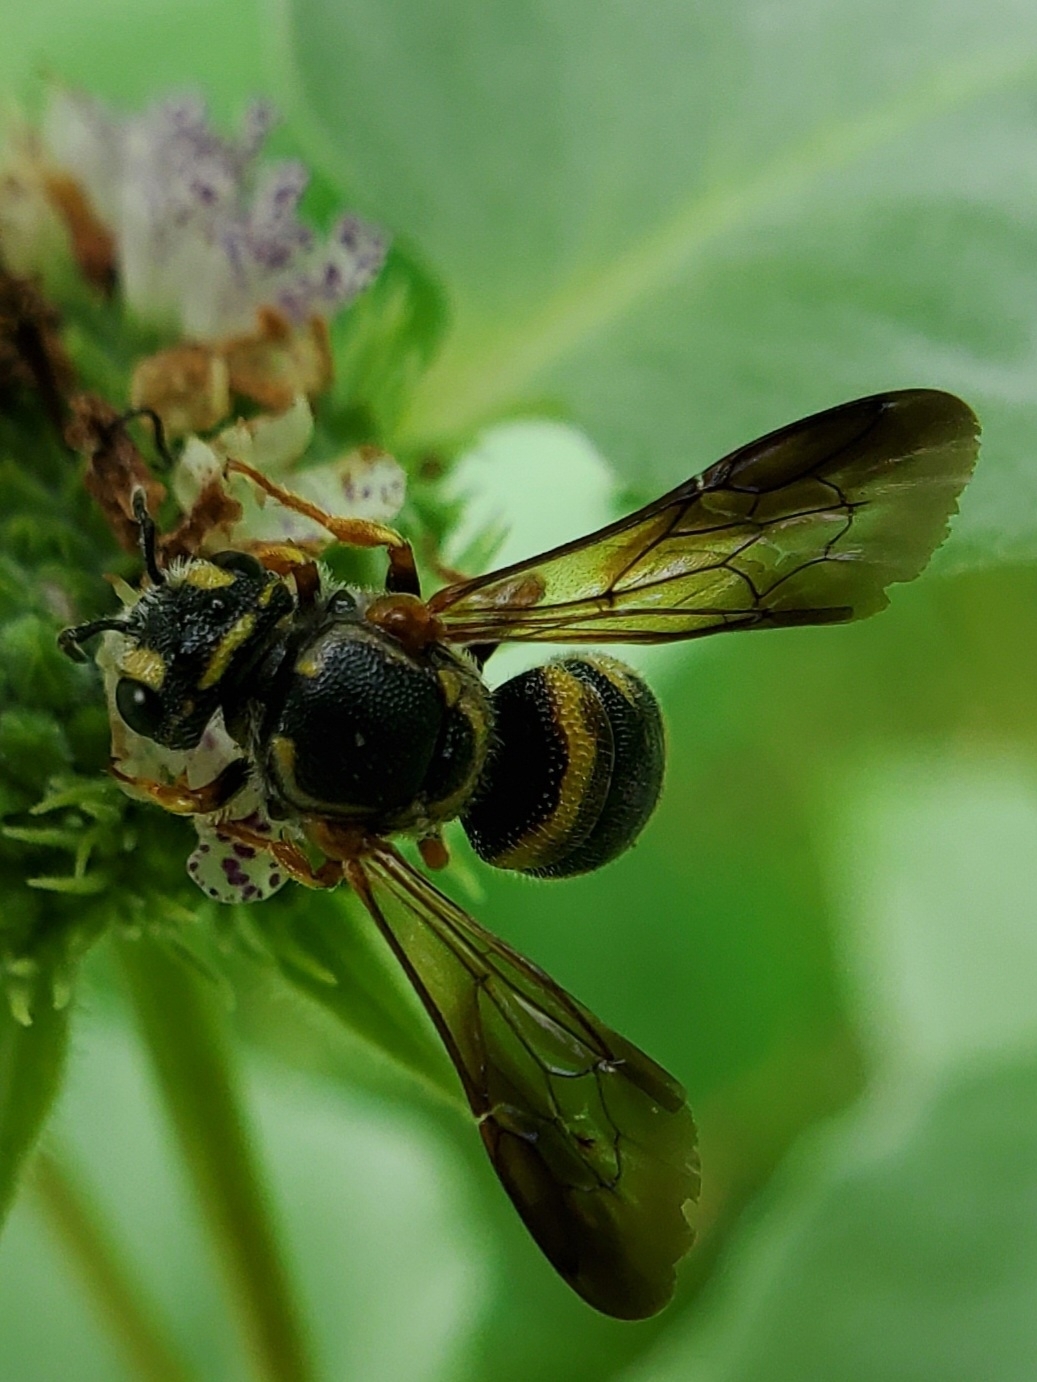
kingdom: Animalia
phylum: Arthropoda
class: Insecta
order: Hymenoptera
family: Megachilidae
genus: Stelis
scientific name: Stelis louisae
